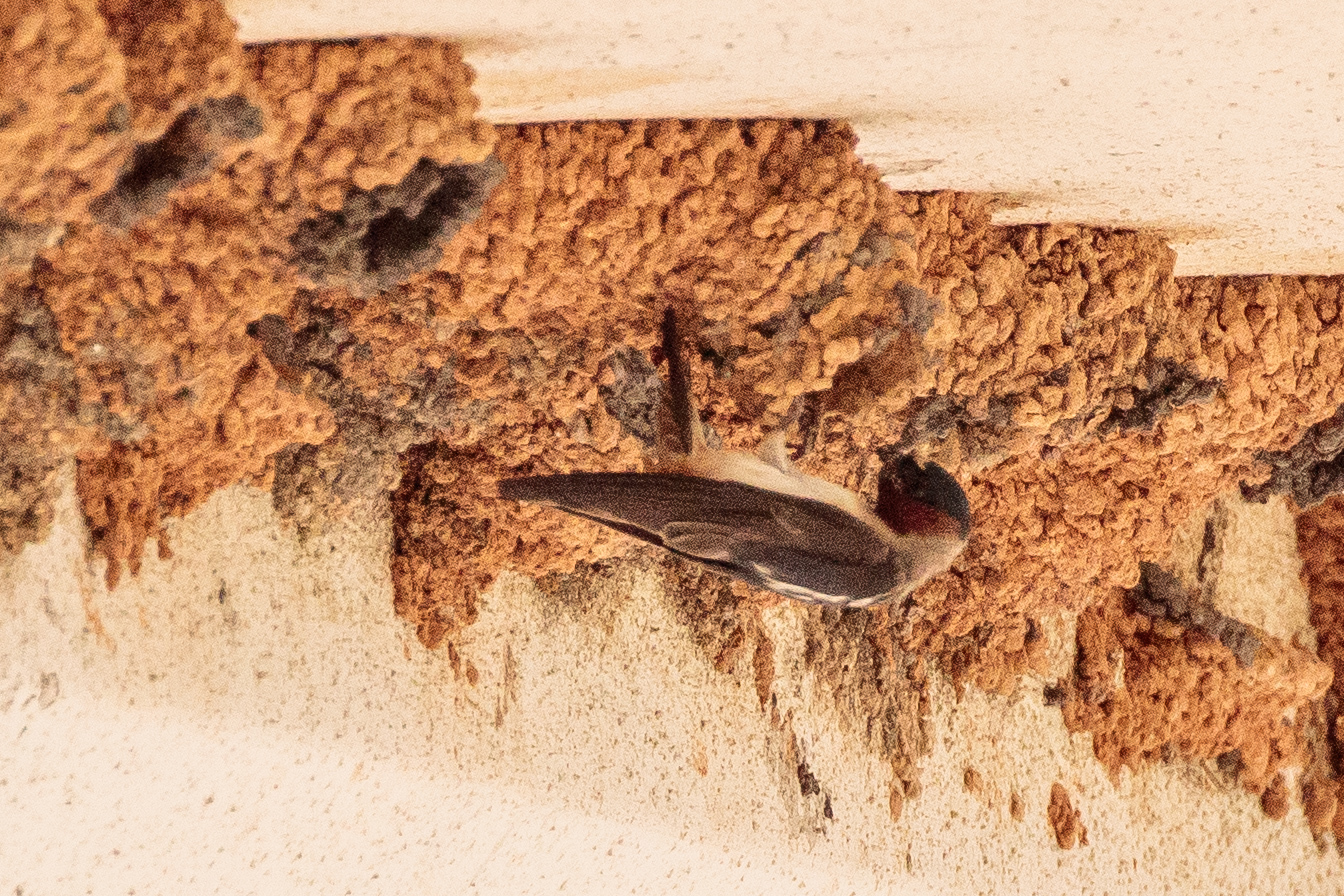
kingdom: Animalia
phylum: Chordata
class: Aves
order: Passeriformes
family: Hirundinidae
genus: Petrochelidon
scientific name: Petrochelidon pyrrhonota
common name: American cliff swallow
